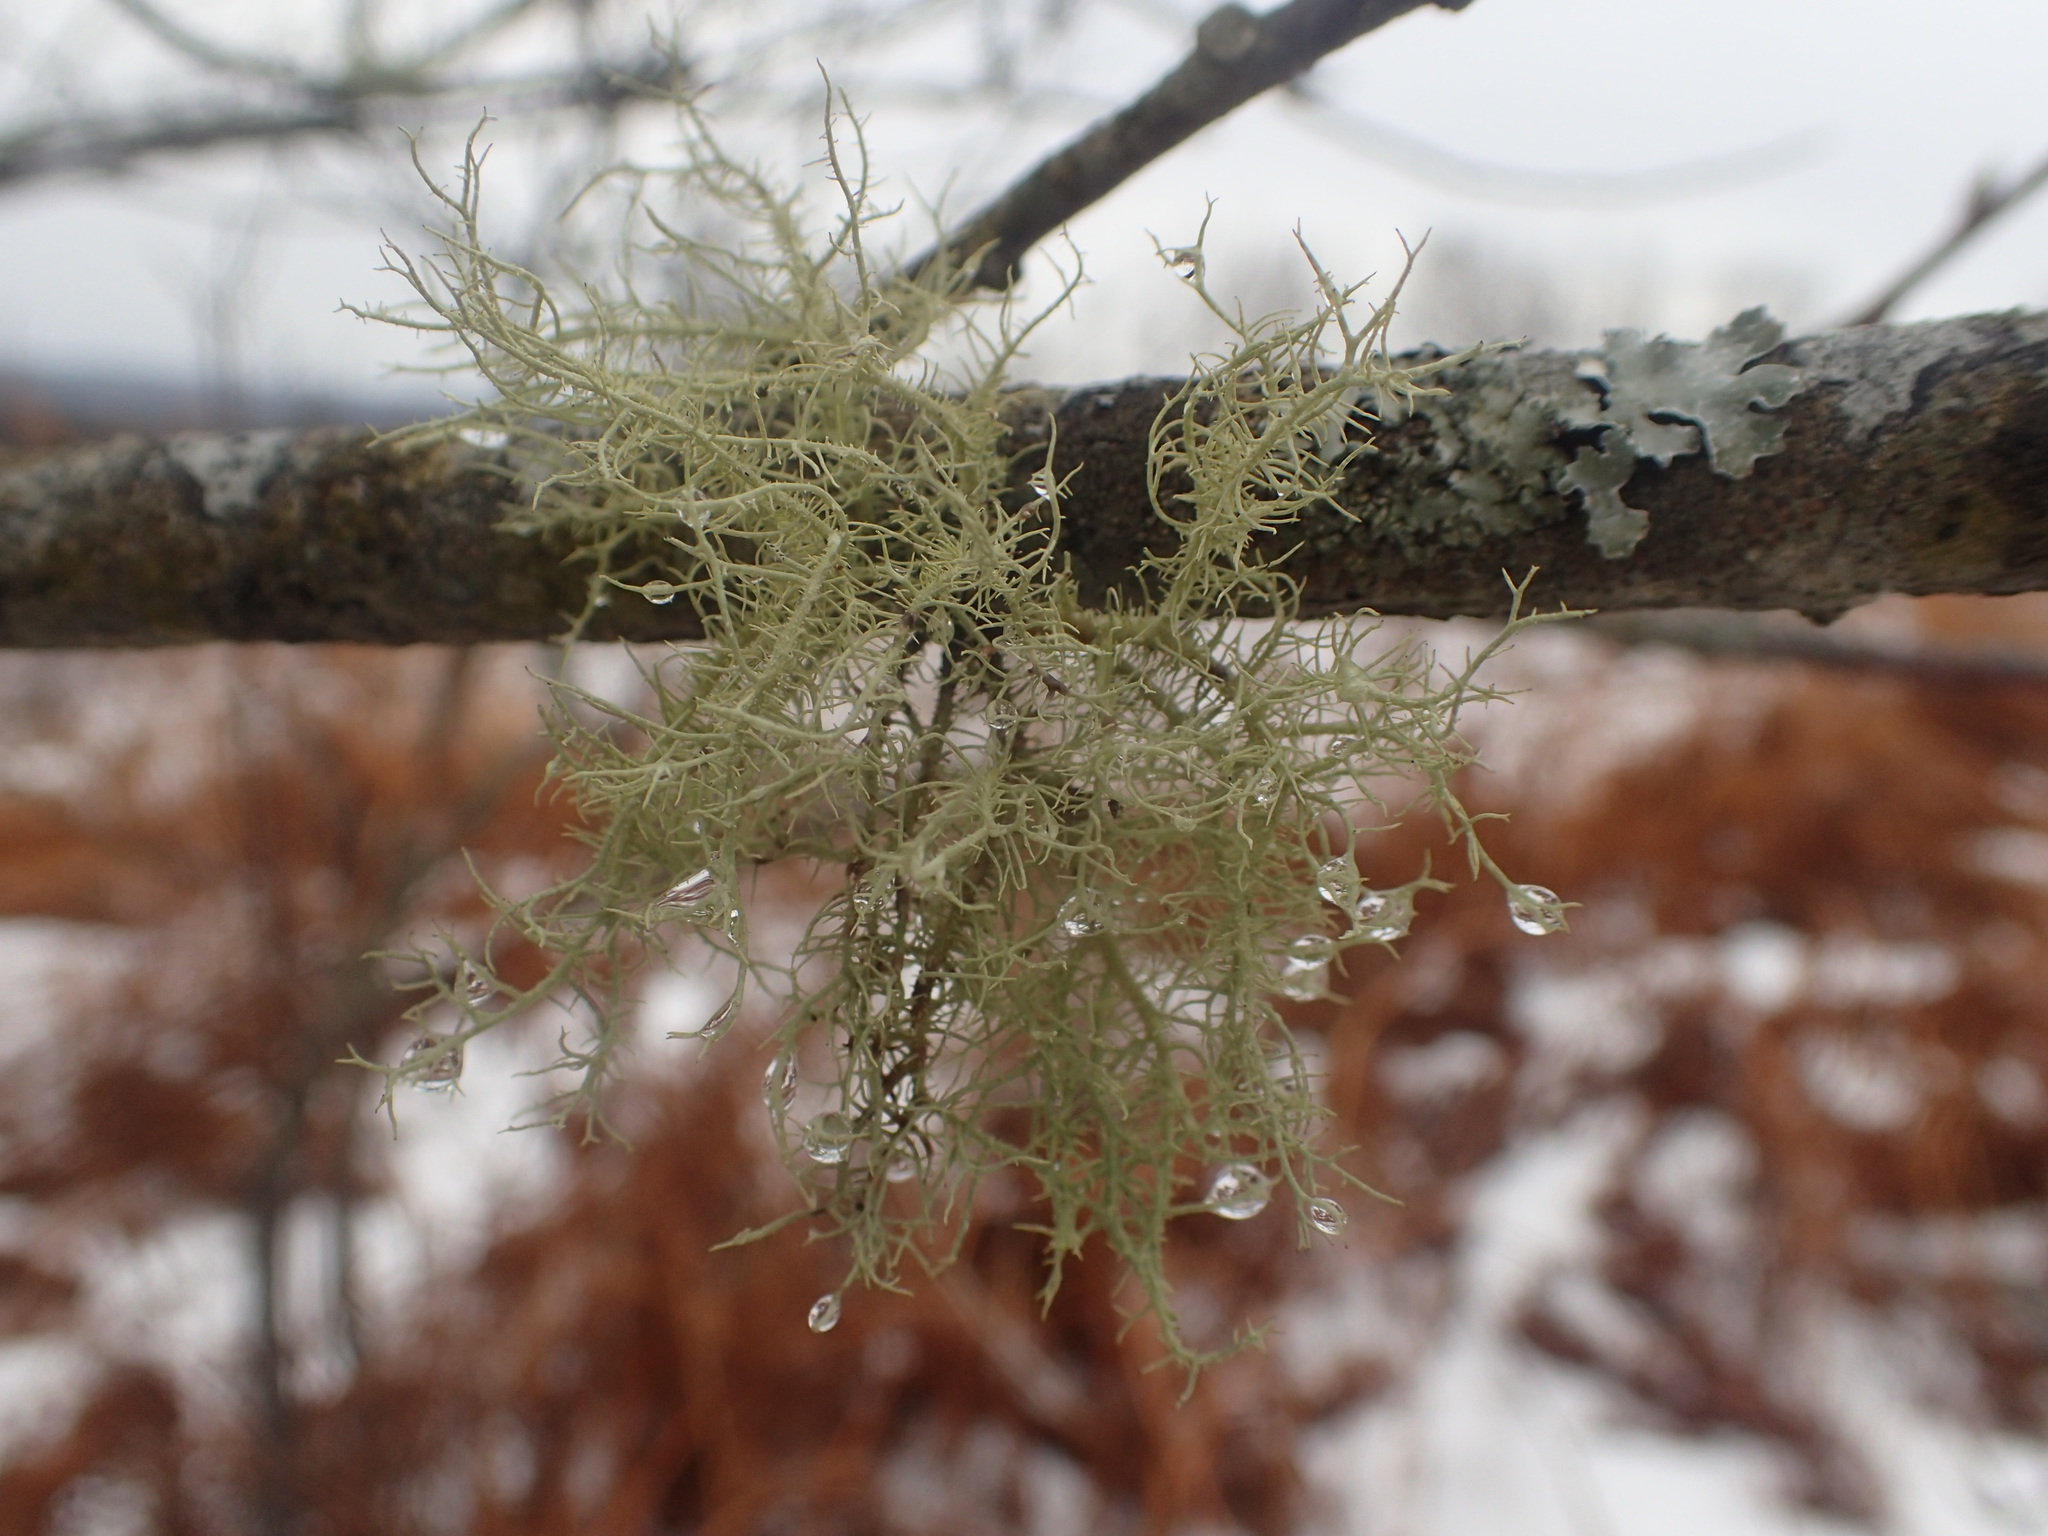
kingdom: Fungi
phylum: Ascomycota
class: Lecanoromycetes
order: Lecanorales
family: Parmeliaceae
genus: Usnea
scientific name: Usnea strigosa
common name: Bushy beard lichen
